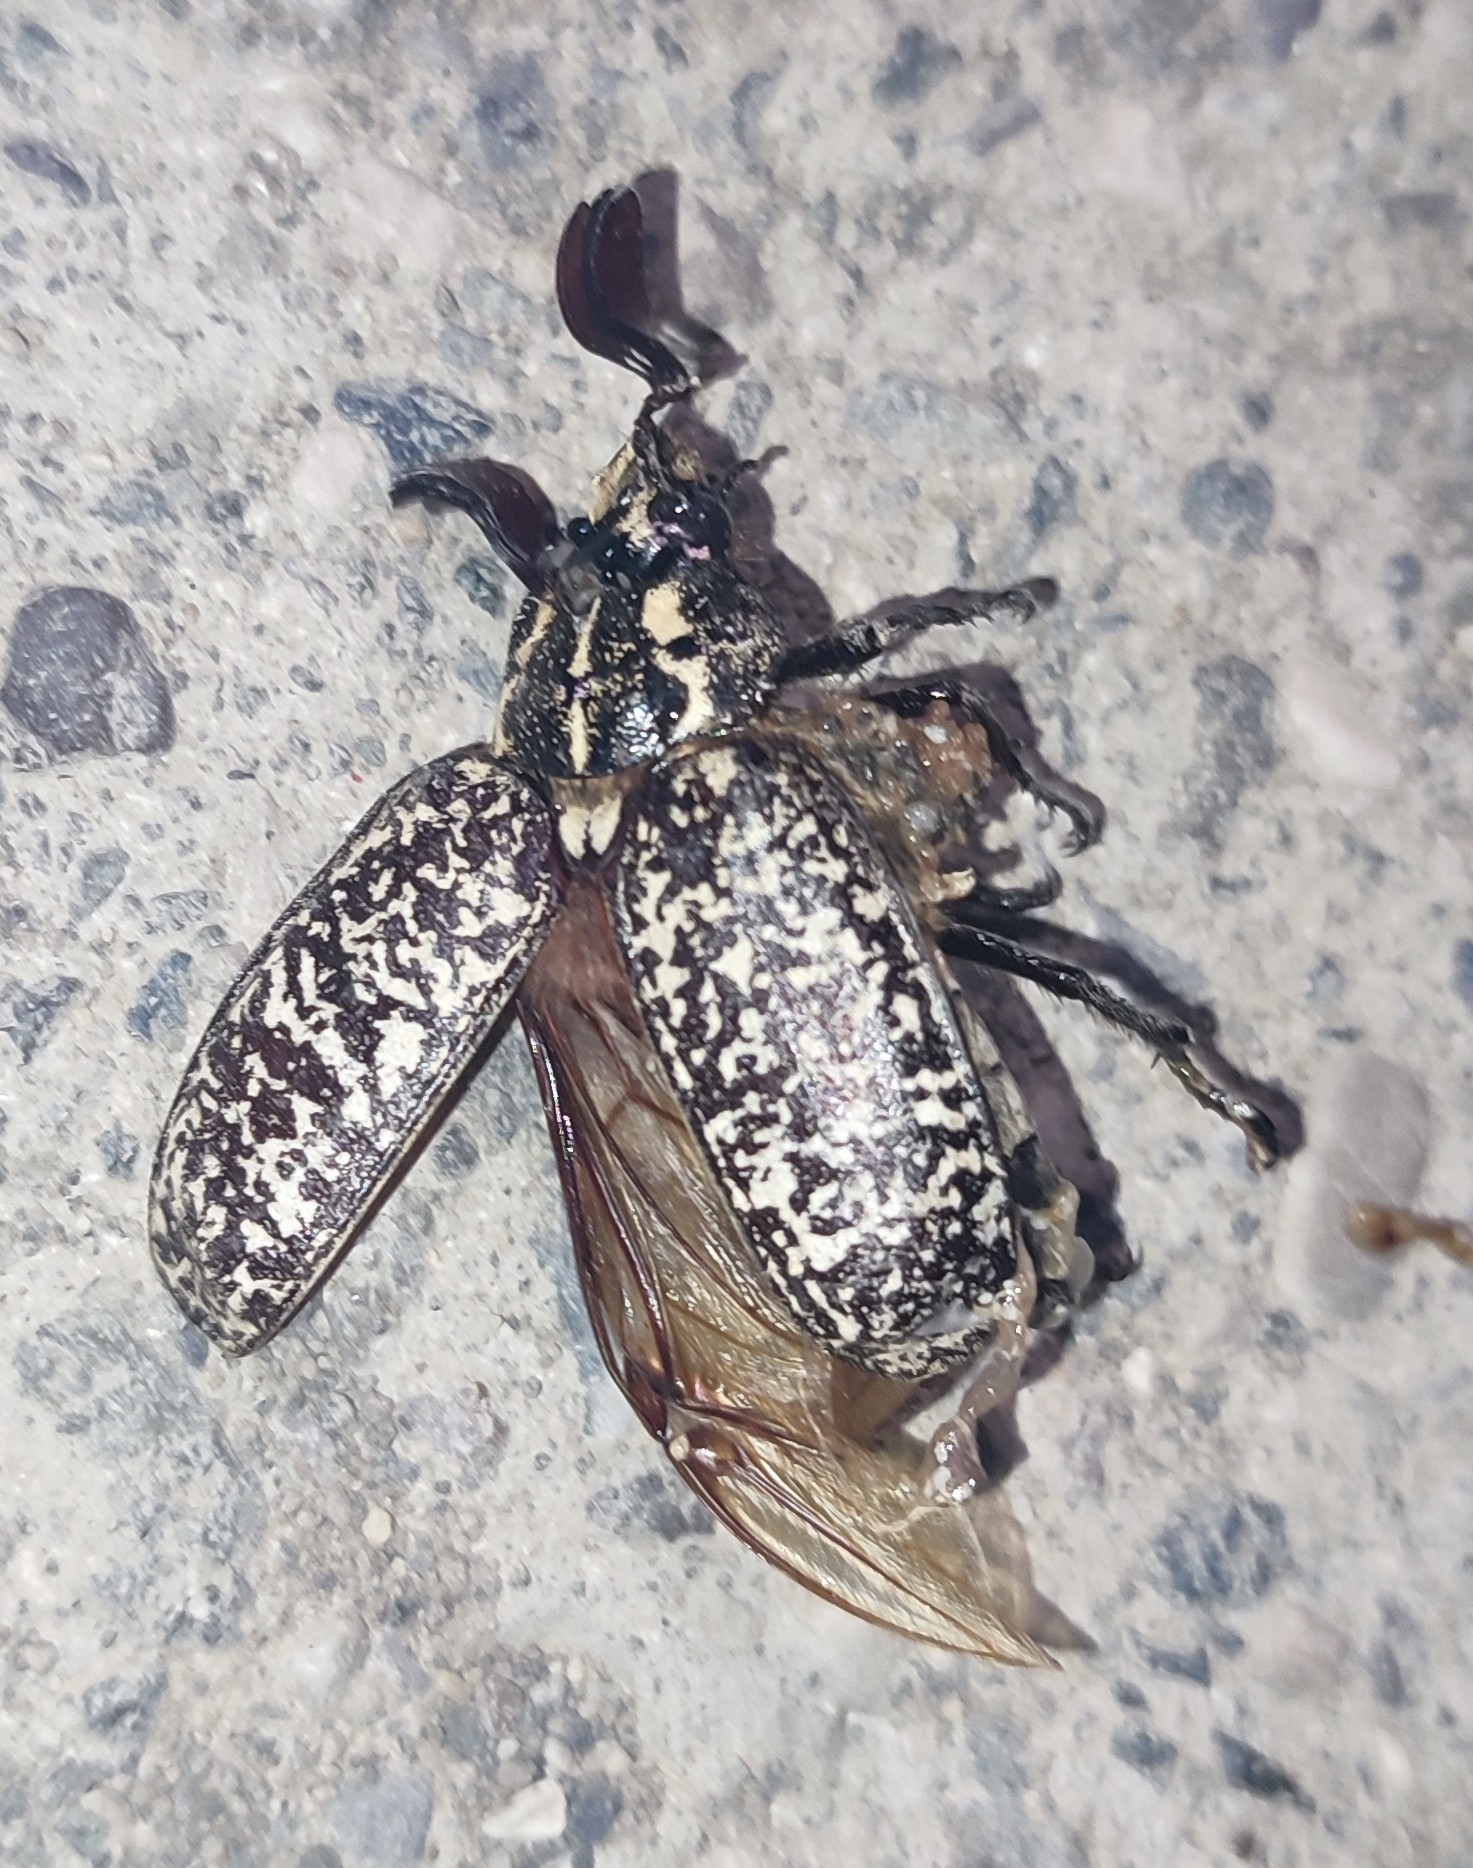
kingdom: Animalia
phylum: Arthropoda
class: Insecta
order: Coleoptera
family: Scarabaeidae
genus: Polyphylla
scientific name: Polyphylla olivieri
